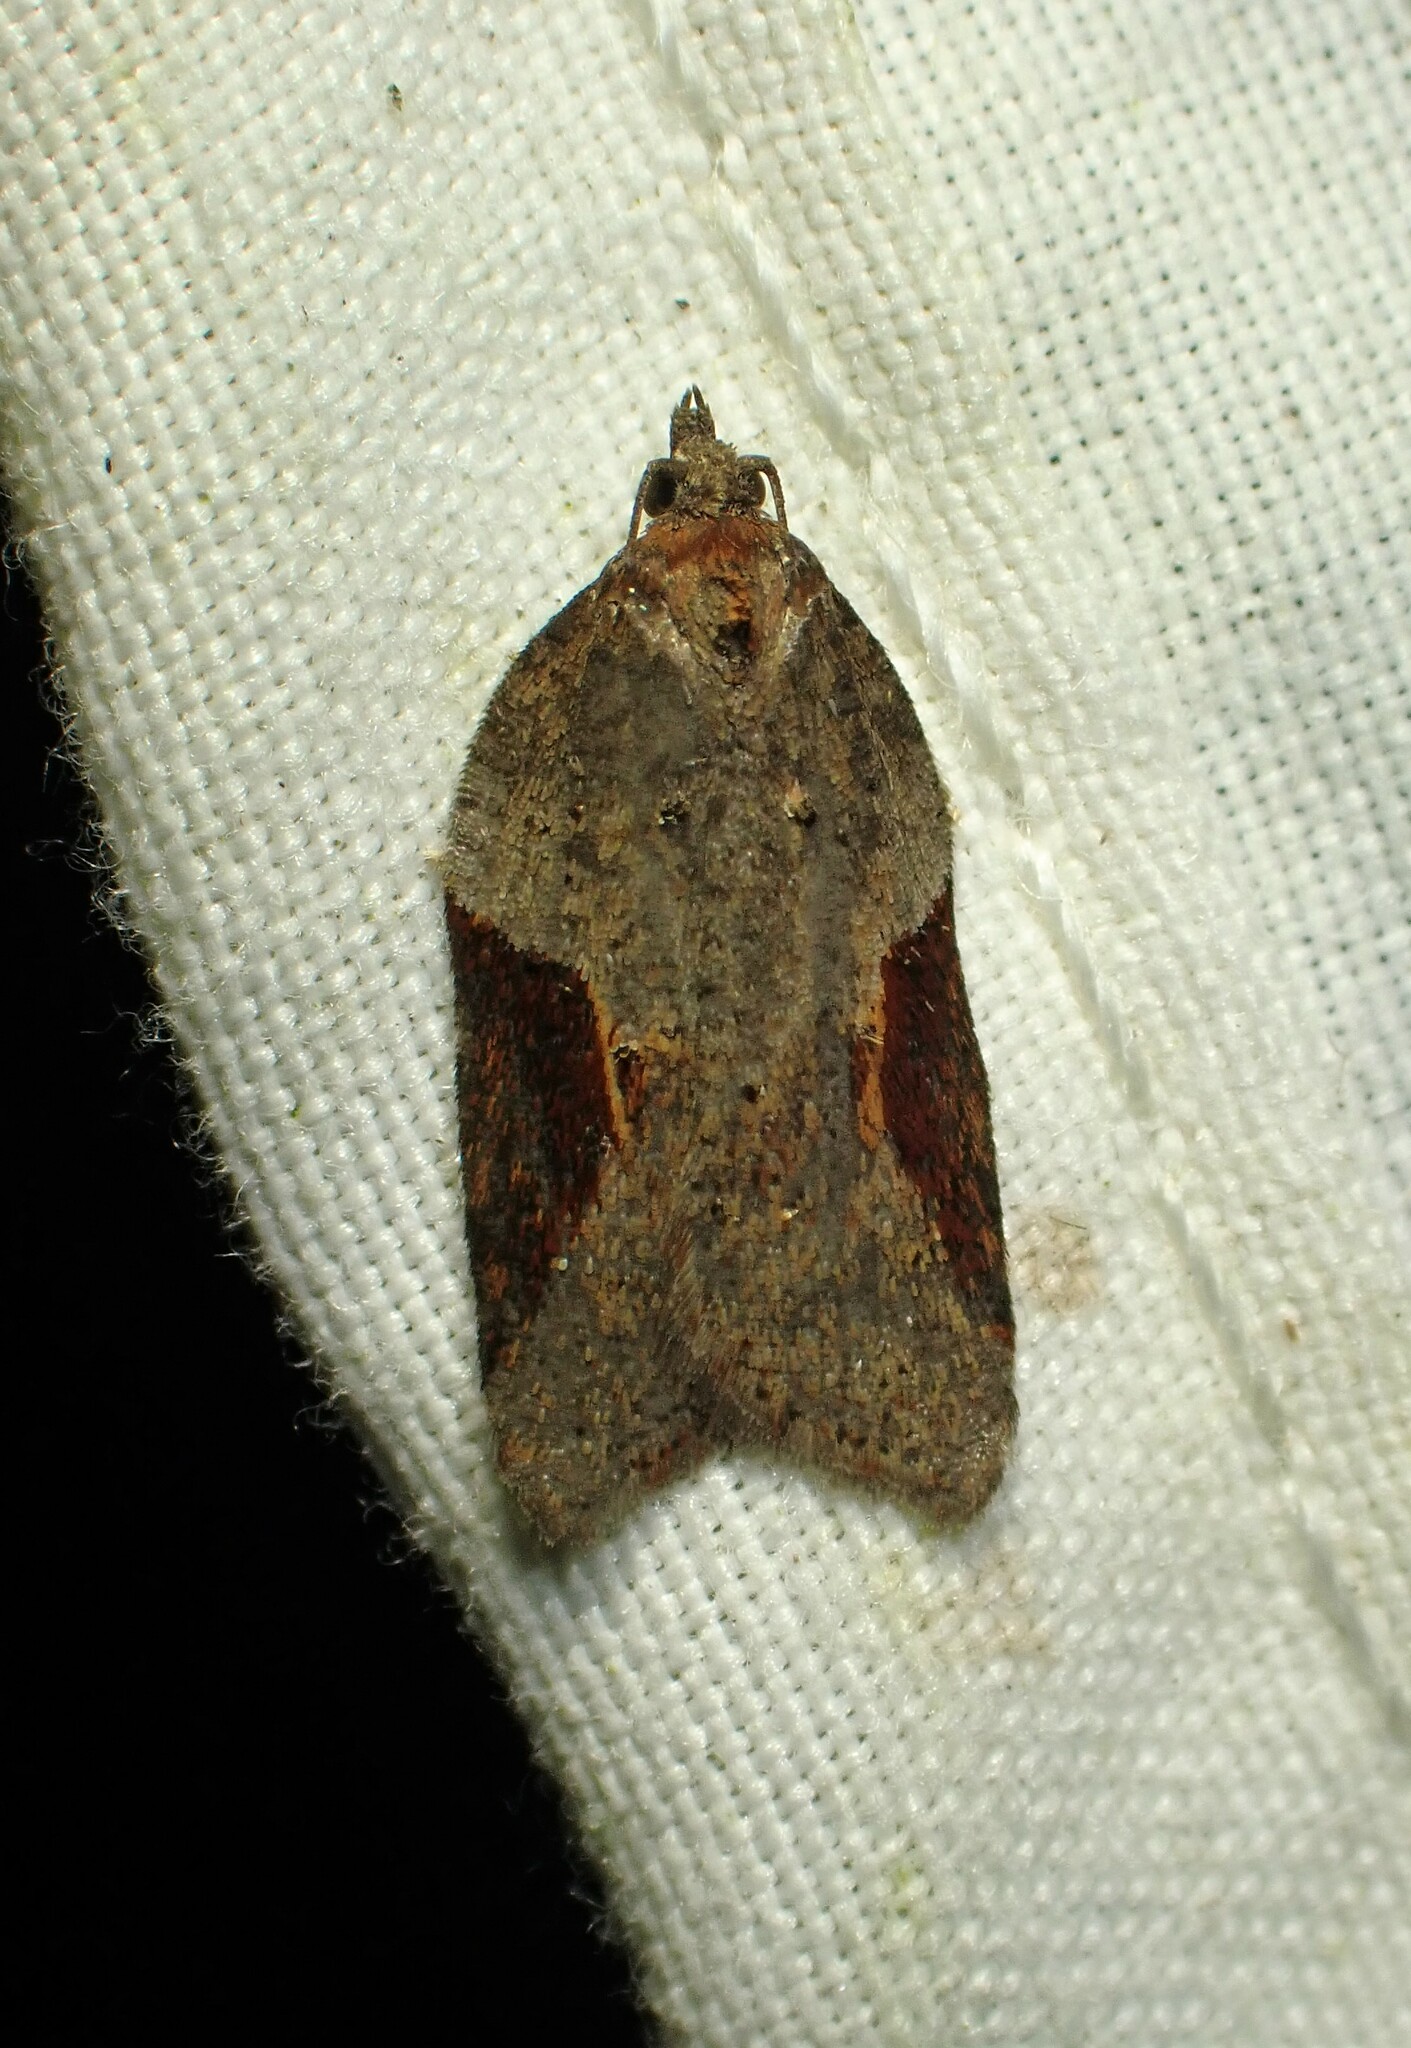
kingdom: Animalia
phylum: Arthropoda
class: Insecta
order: Lepidoptera
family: Tortricidae
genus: Acleris
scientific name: Acleris macdunnoughi
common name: Macdunnough's acleris
